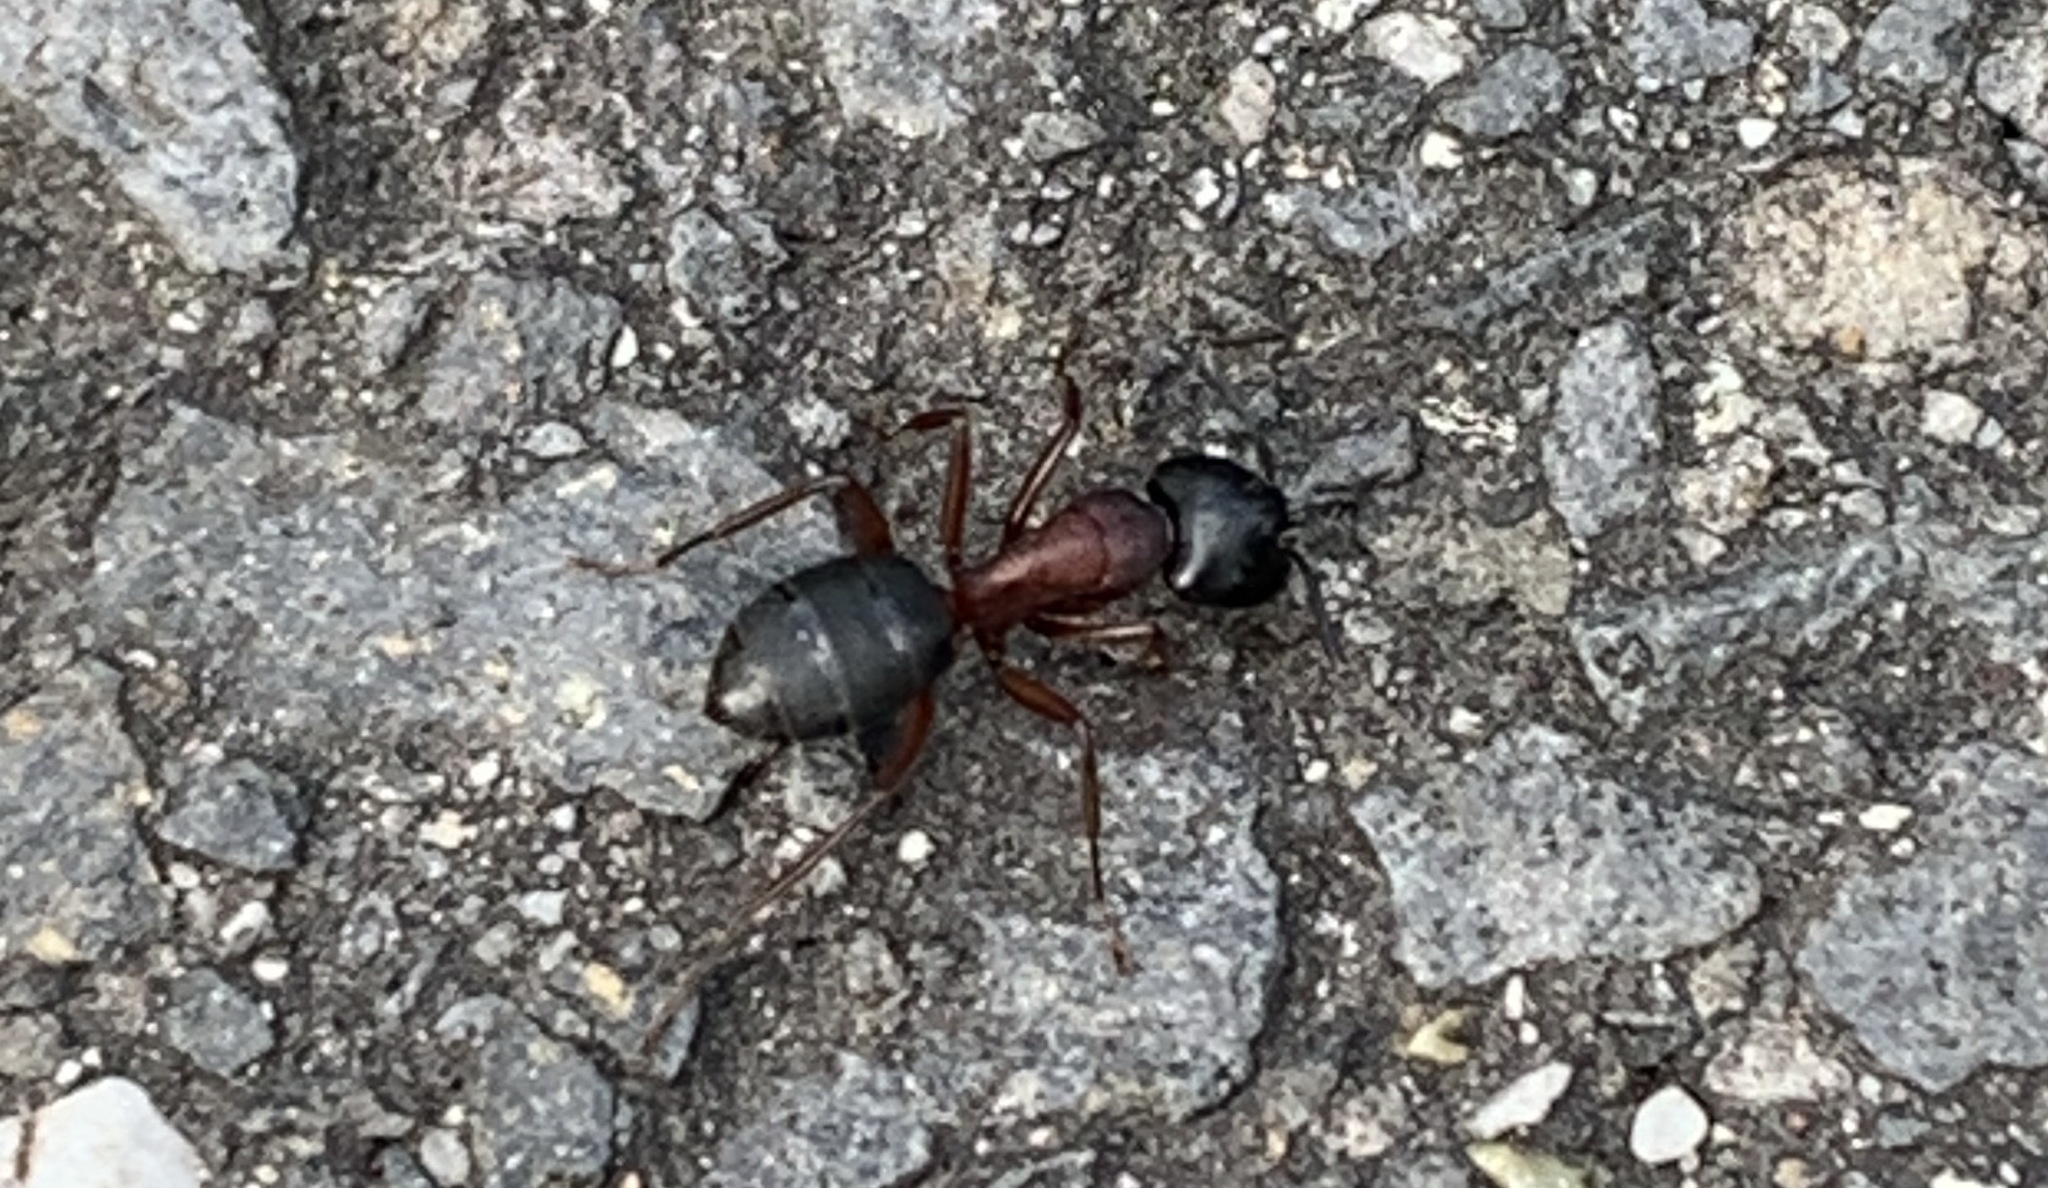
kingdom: Animalia
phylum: Arthropoda
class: Insecta
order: Hymenoptera
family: Formicidae
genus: Camponotus
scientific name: Camponotus herculeanus
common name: Hercules ant
